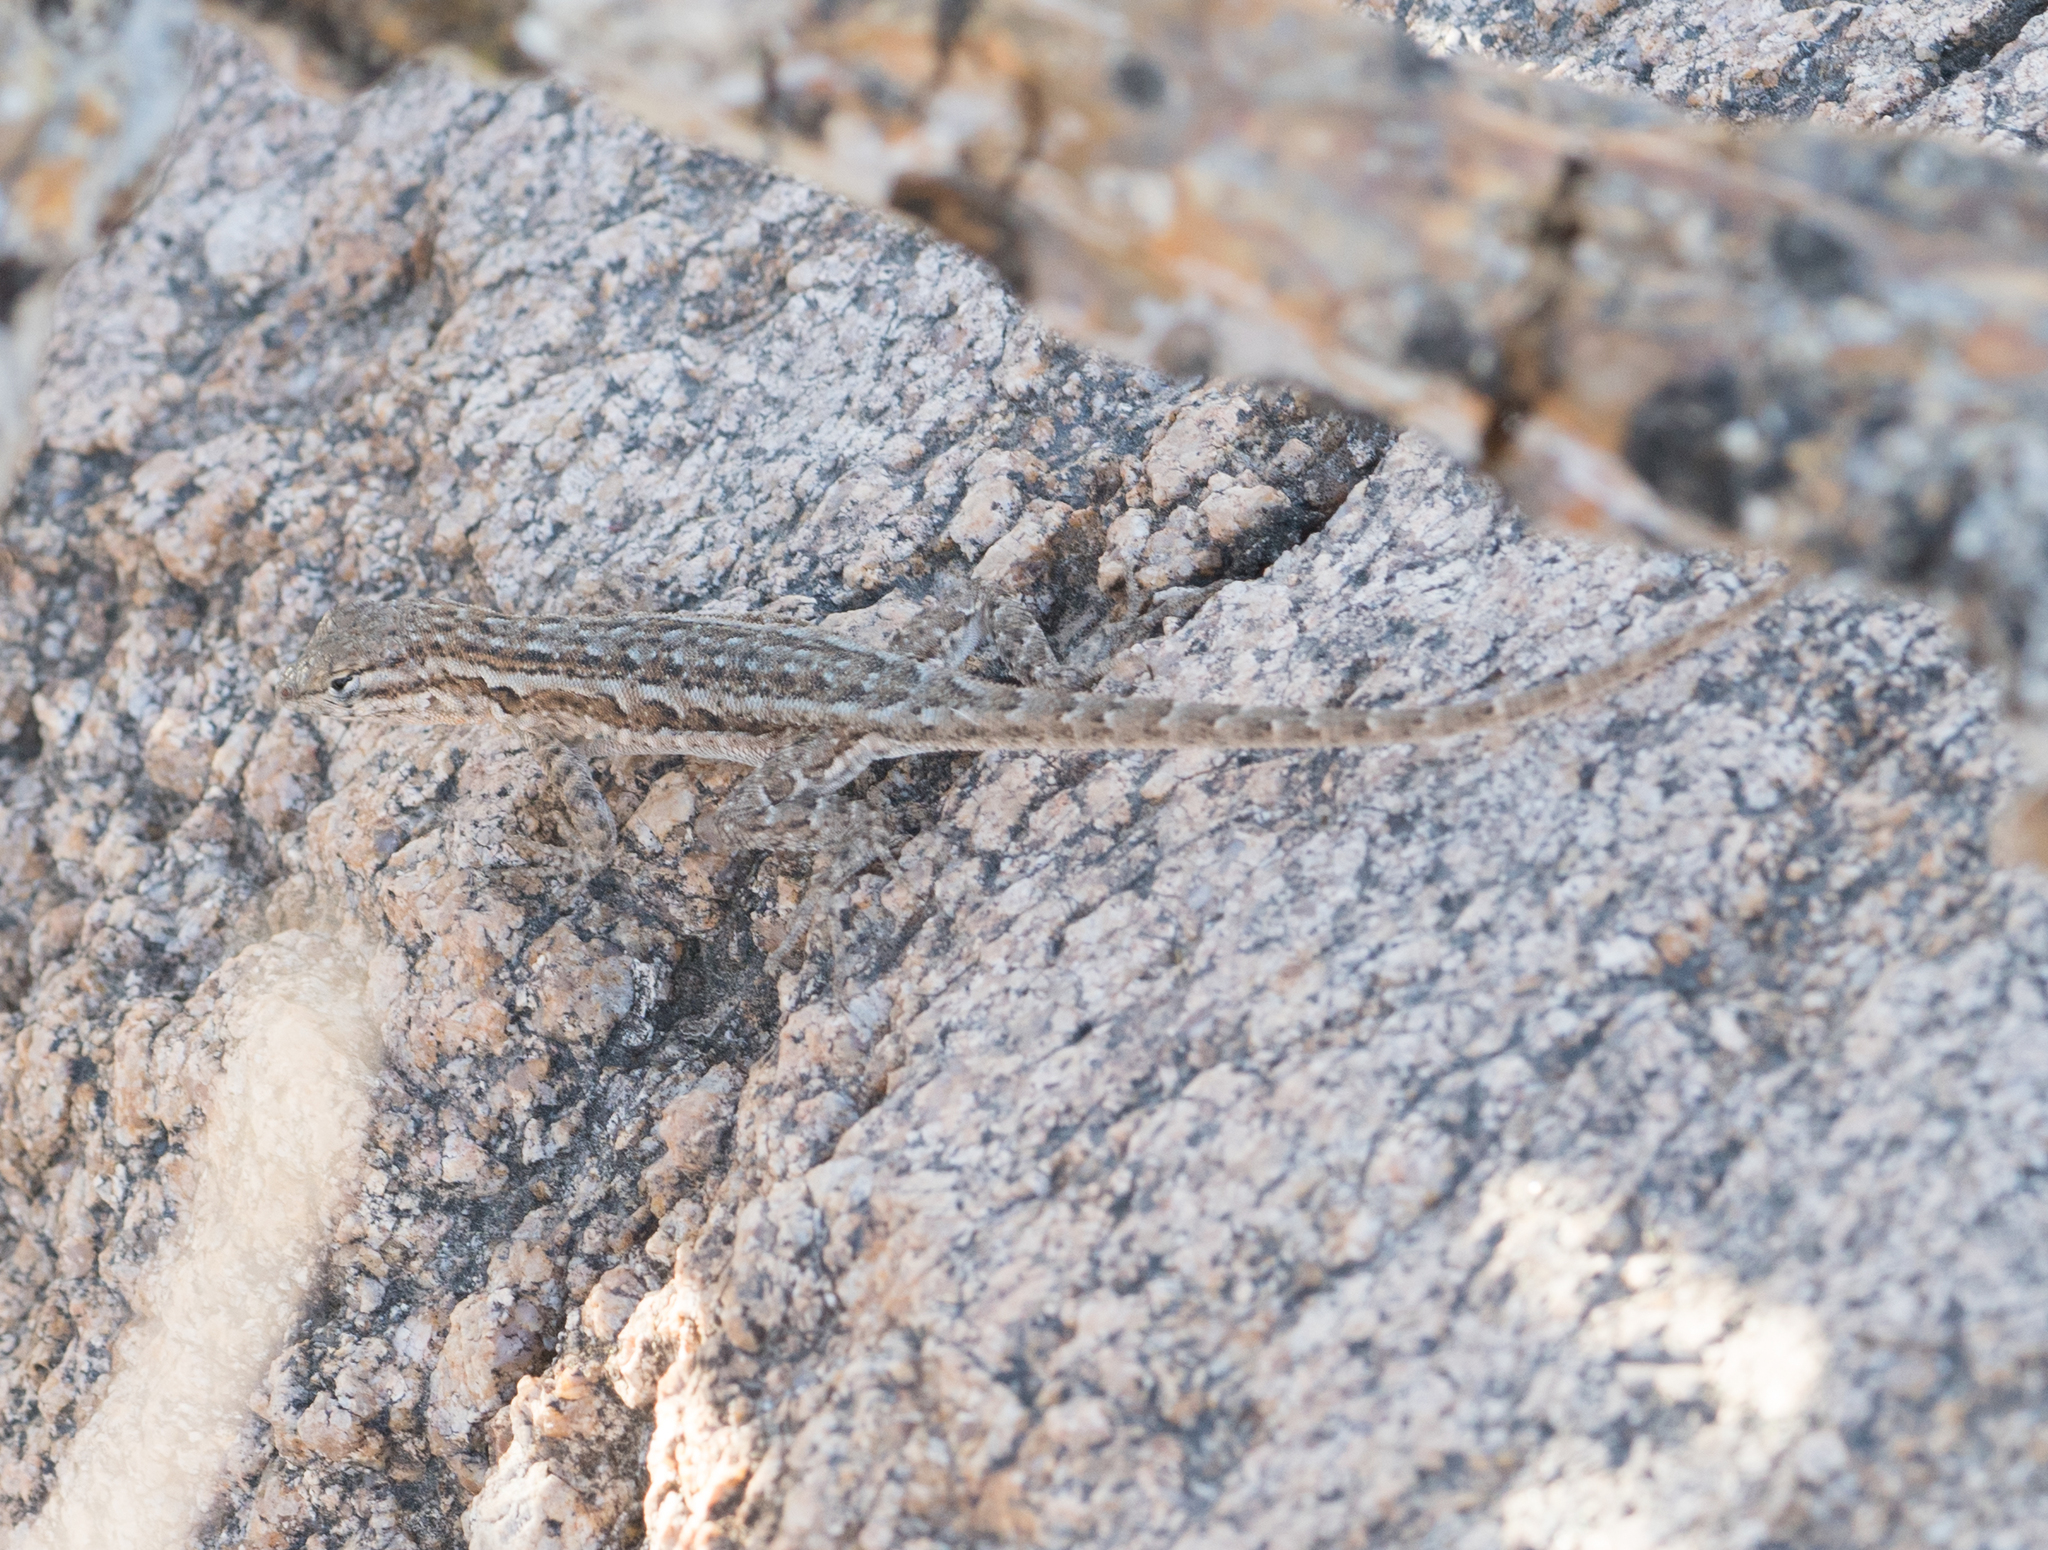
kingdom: Animalia
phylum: Chordata
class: Squamata
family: Phrynosomatidae
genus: Uta
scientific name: Uta stansburiana
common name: Side-blotched lizard
